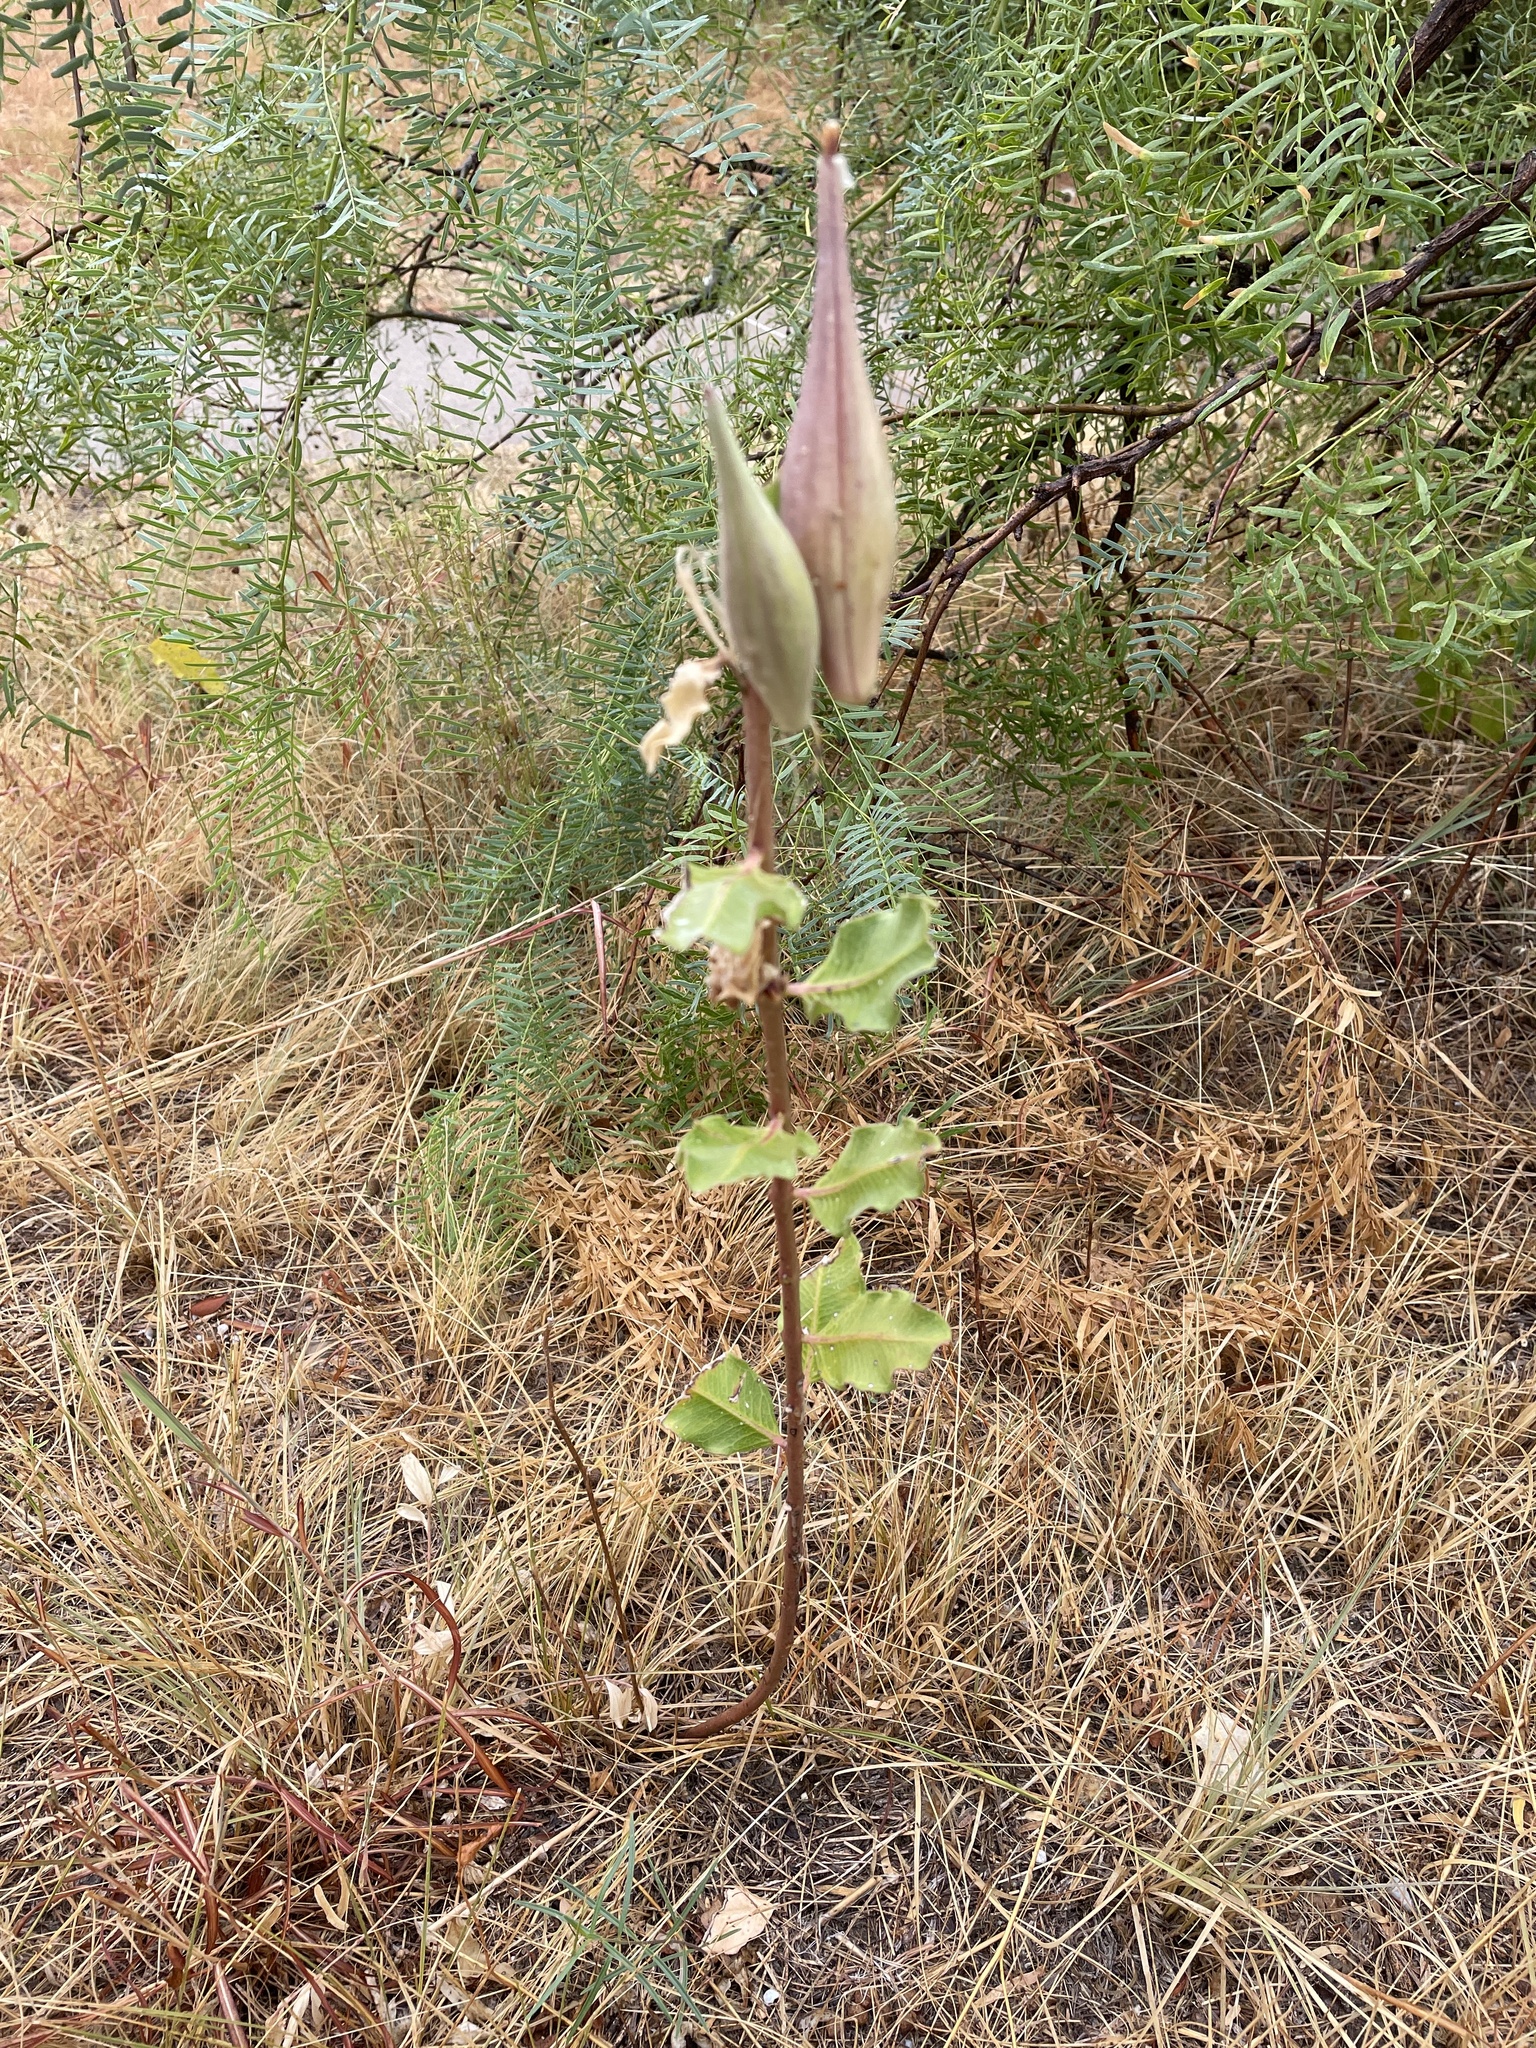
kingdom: Plantae
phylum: Tracheophyta
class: Magnoliopsida
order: Gentianales
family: Apocynaceae
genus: Asclepias
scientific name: Asclepias viridiflora
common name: Green comet milkweed
